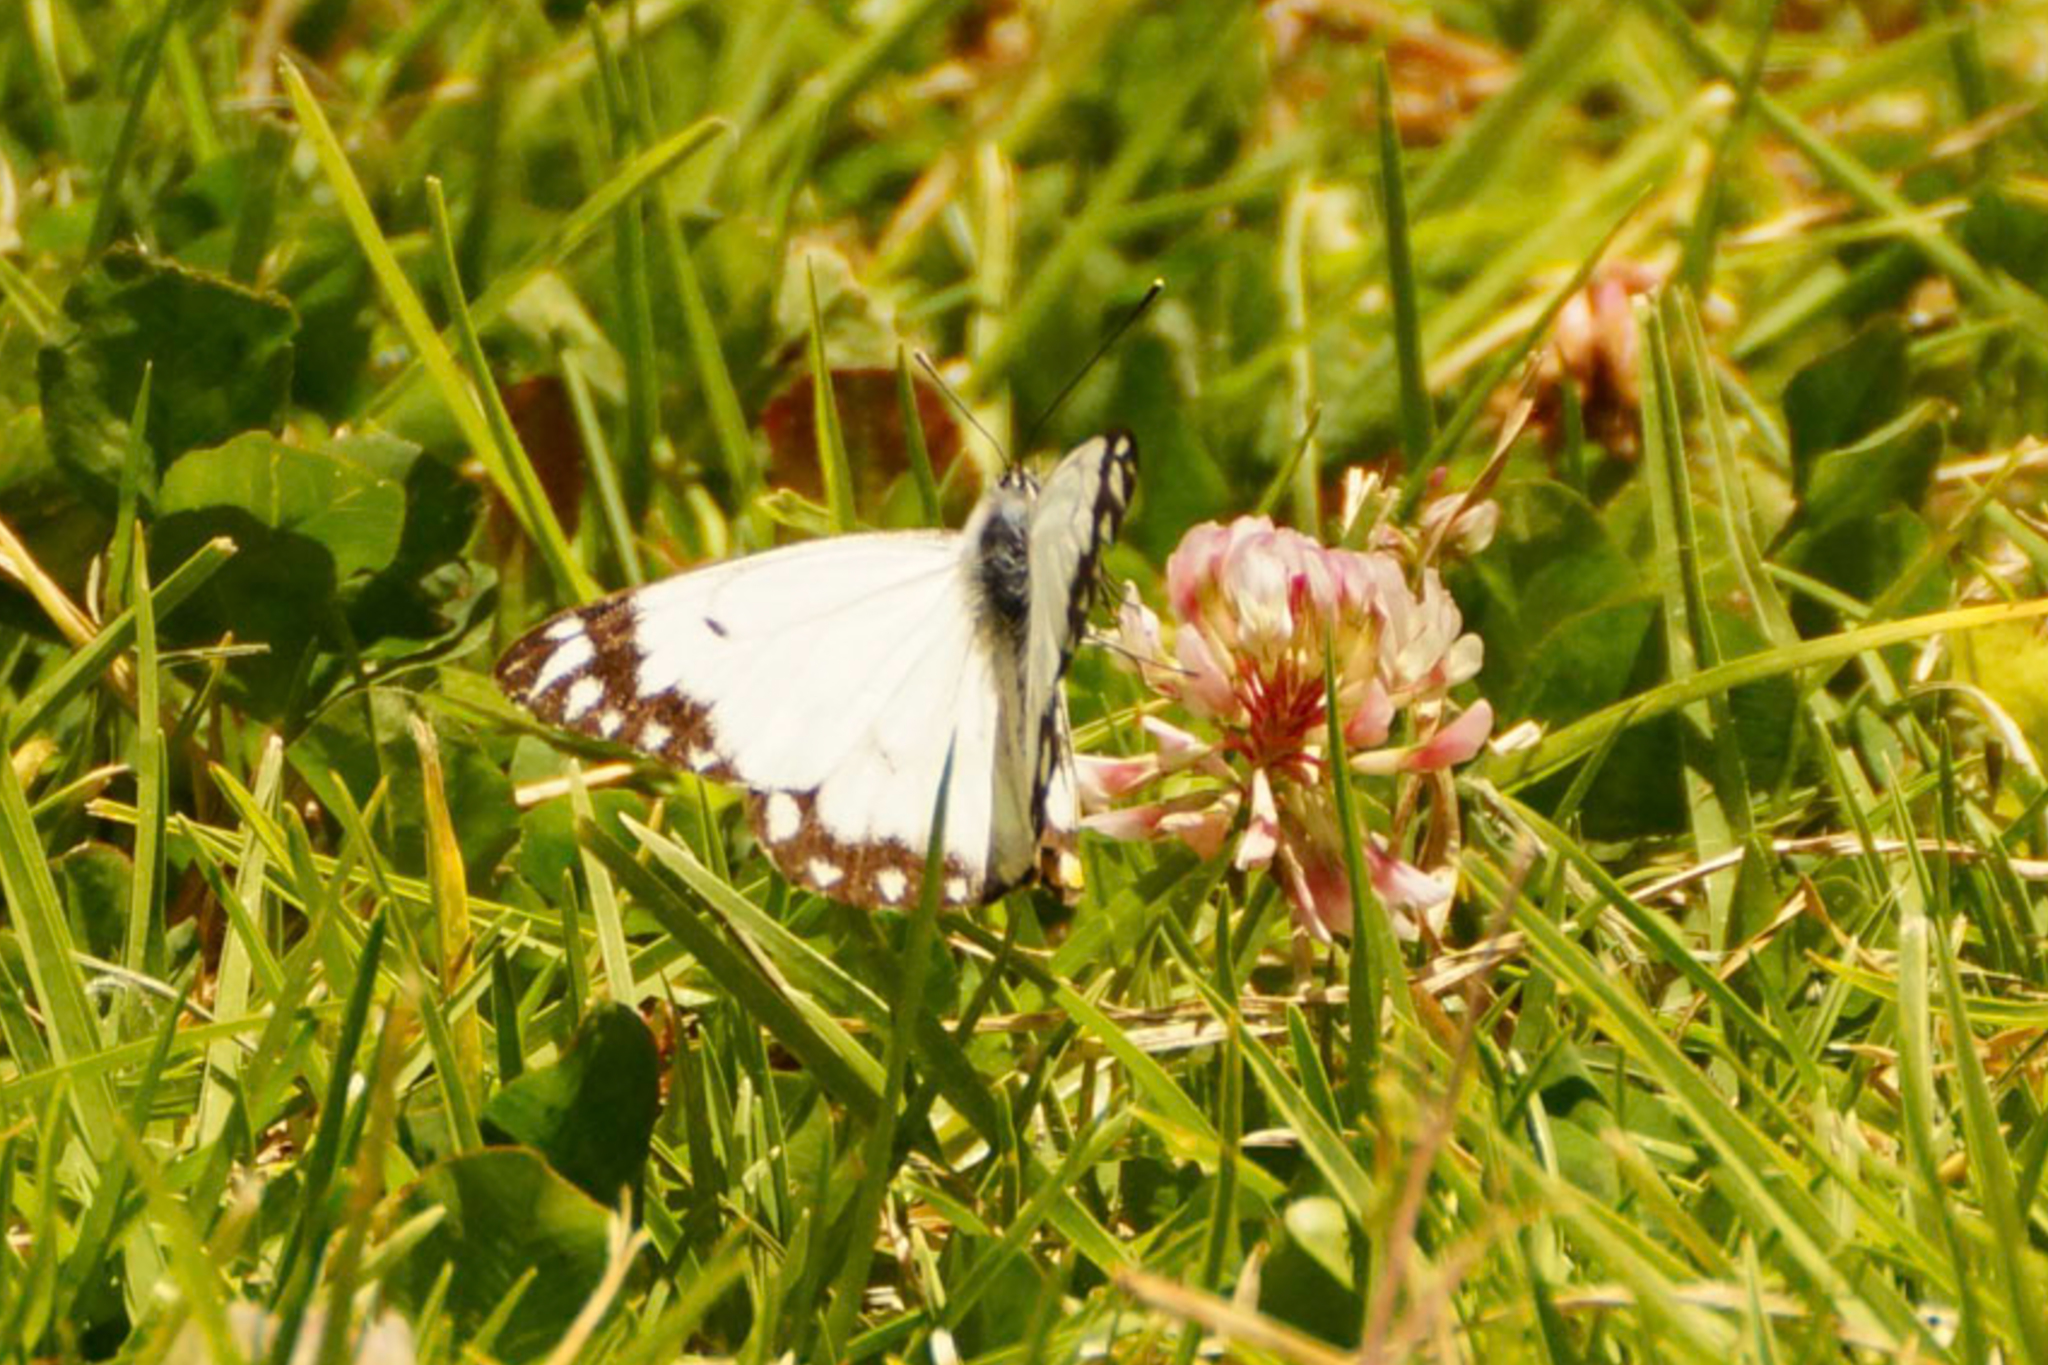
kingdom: Animalia
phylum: Arthropoda
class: Insecta
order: Lepidoptera
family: Pieridae
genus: Belenois
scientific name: Belenois java
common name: Caper white
